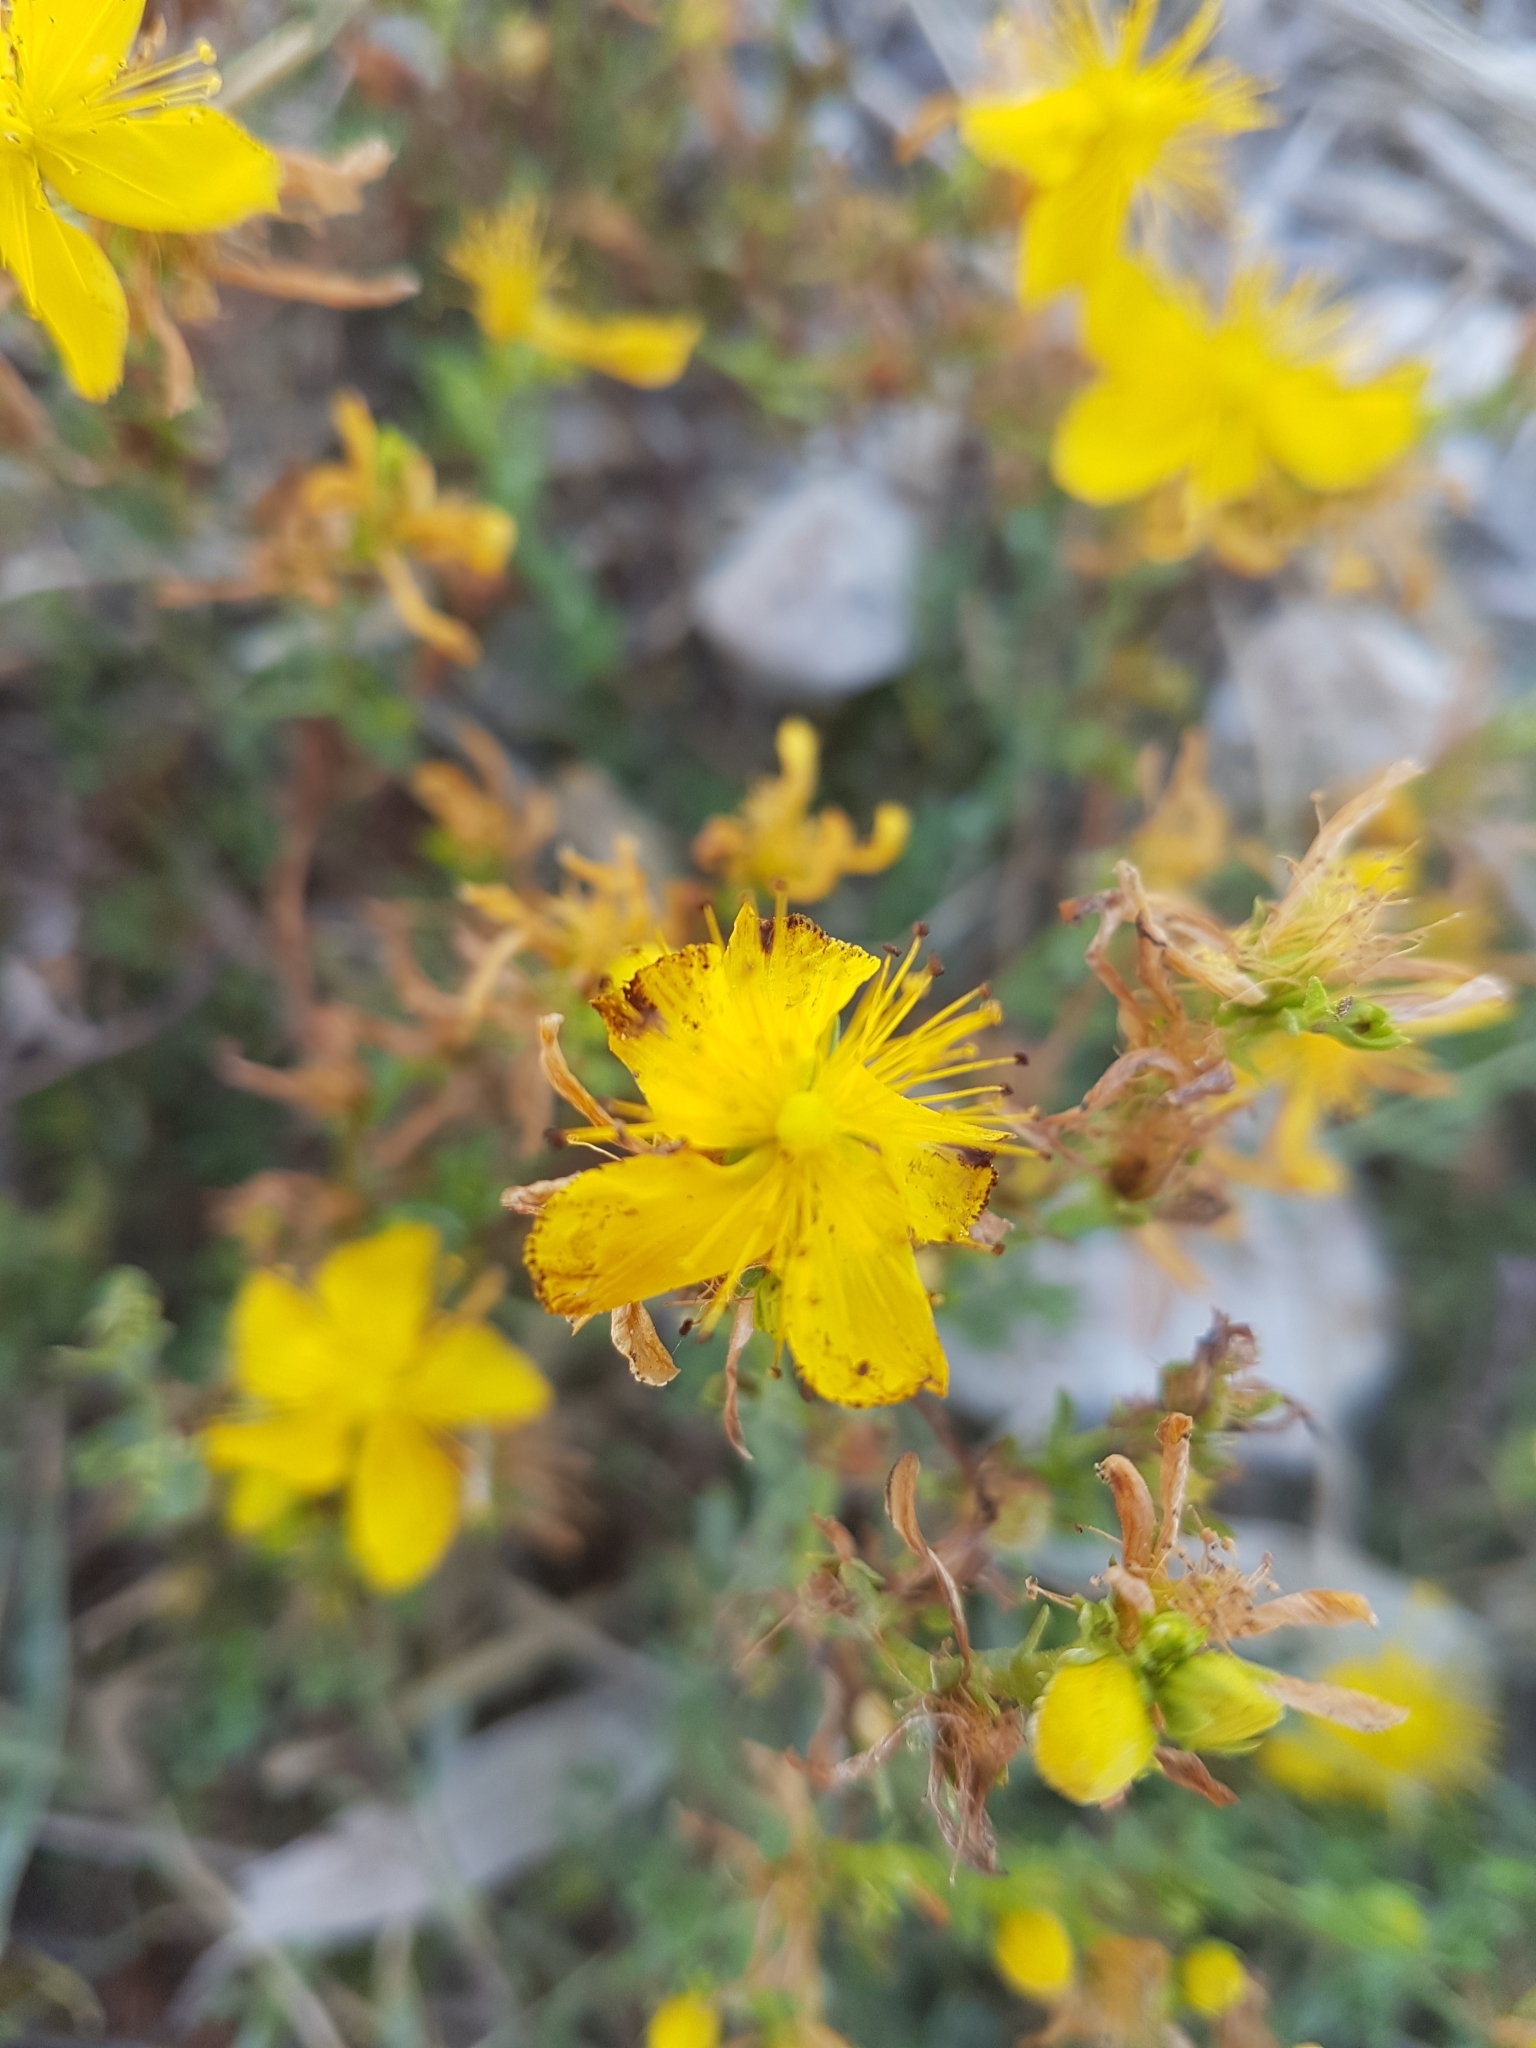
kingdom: Plantae
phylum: Tracheophyta
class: Magnoliopsida
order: Malpighiales
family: Hypericaceae
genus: Hypericum
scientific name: Hypericum perforatum
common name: Common st. johnswort
